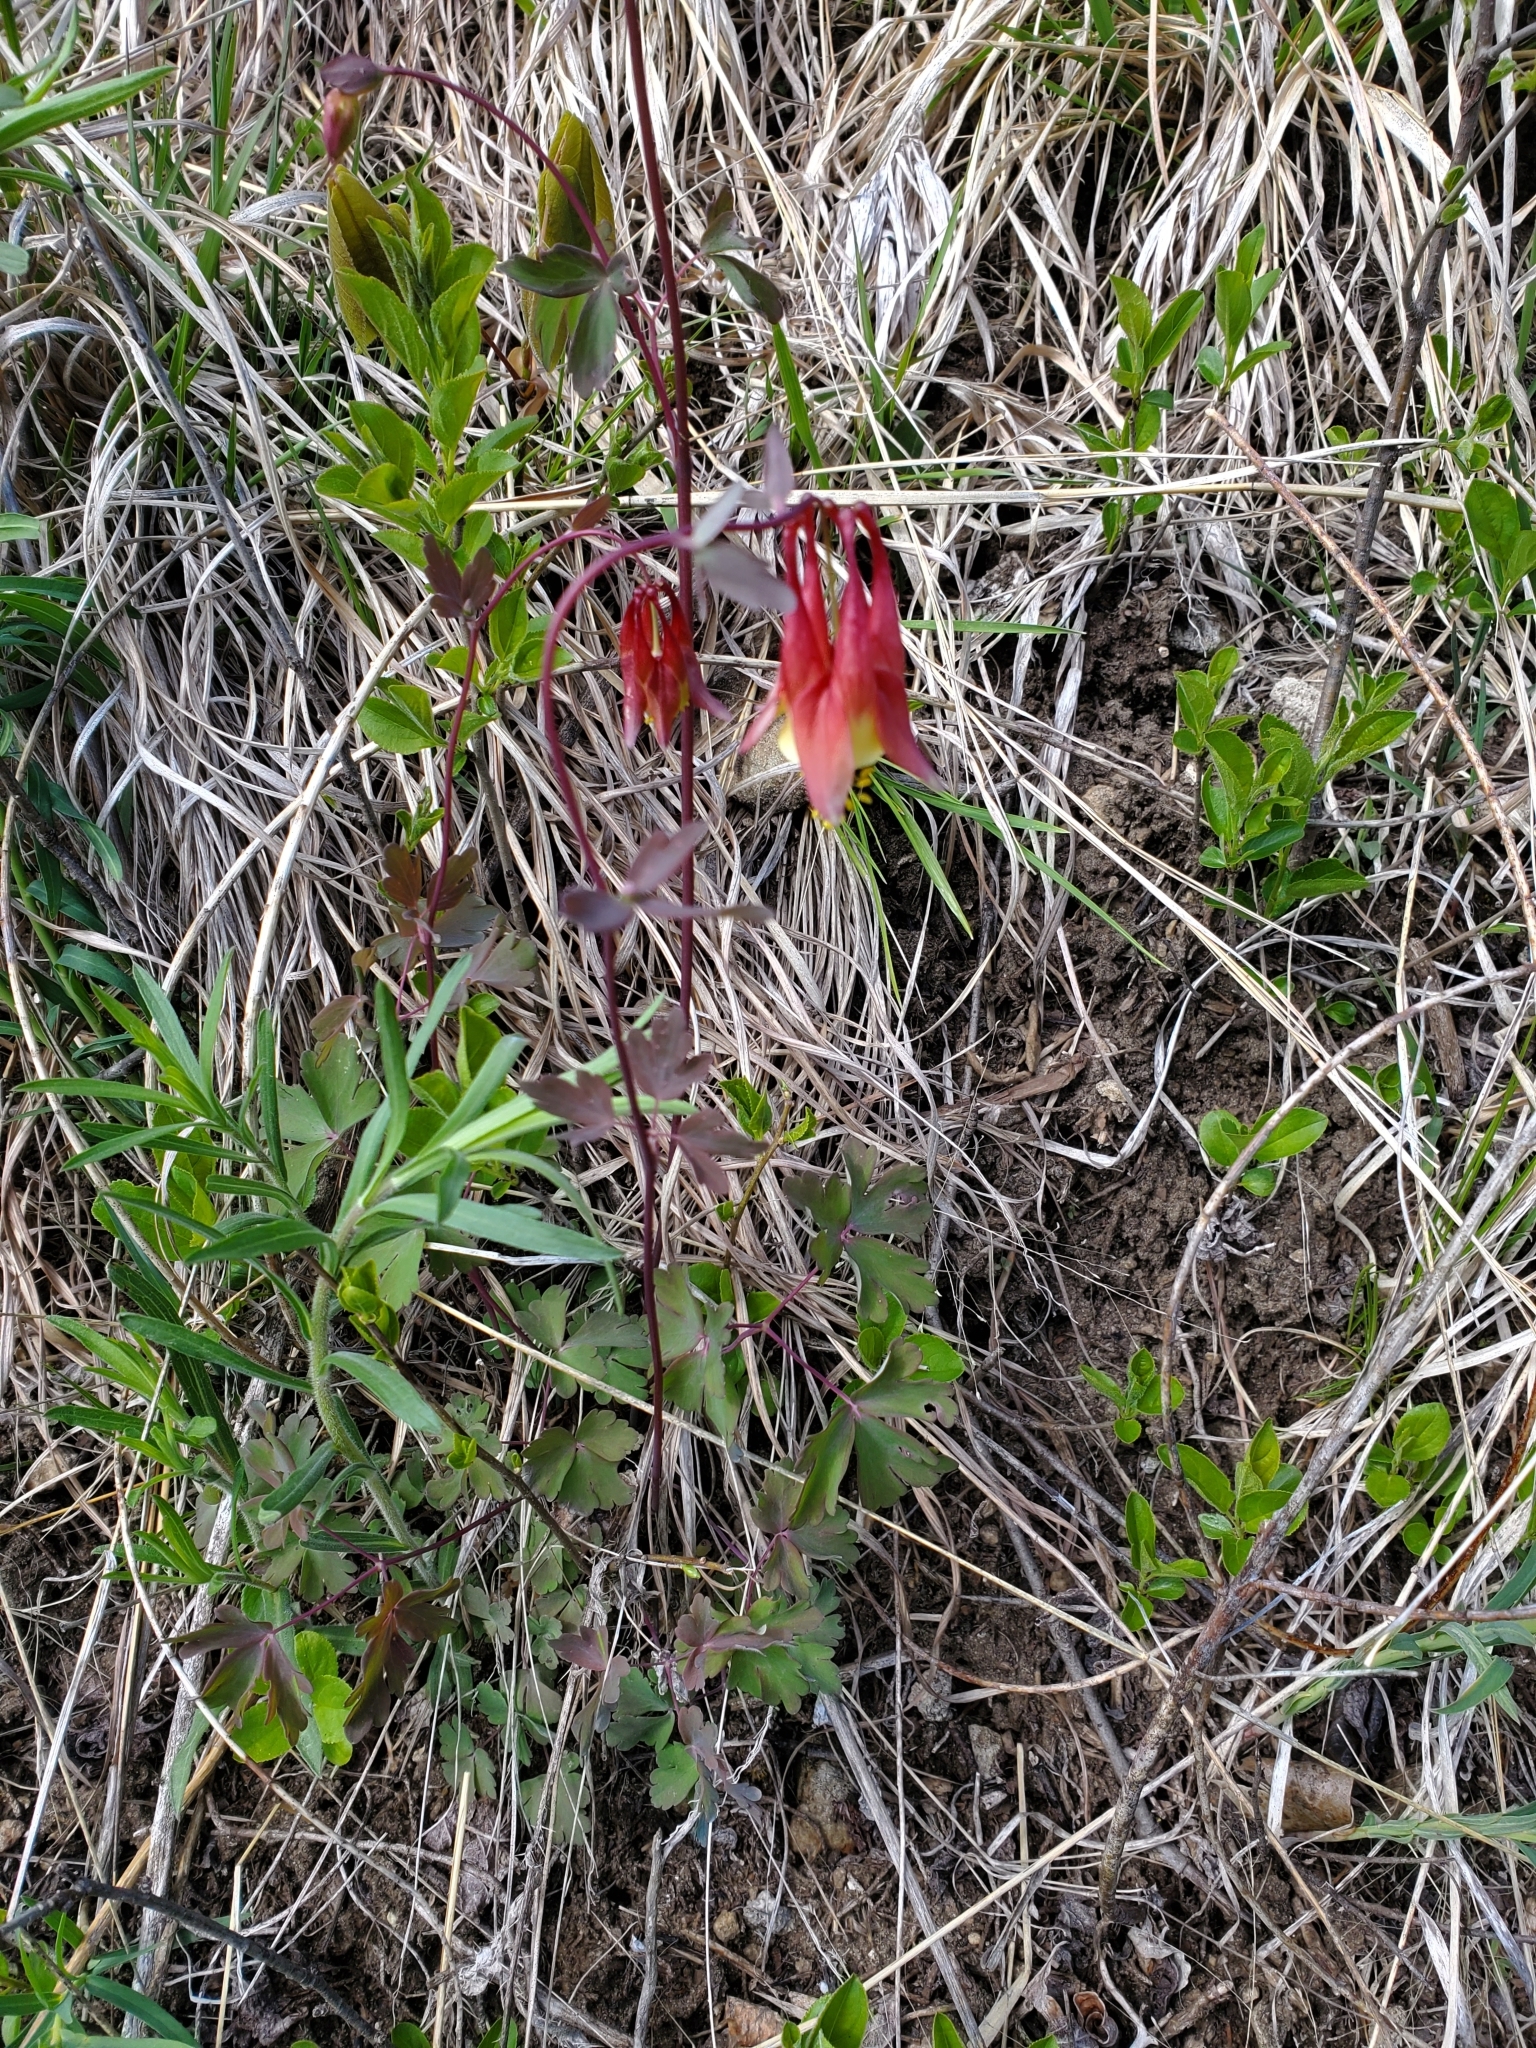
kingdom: Plantae
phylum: Tracheophyta
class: Magnoliopsida
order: Ranunculales
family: Ranunculaceae
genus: Aquilegia
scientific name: Aquilegia canadensis
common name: American columbine
